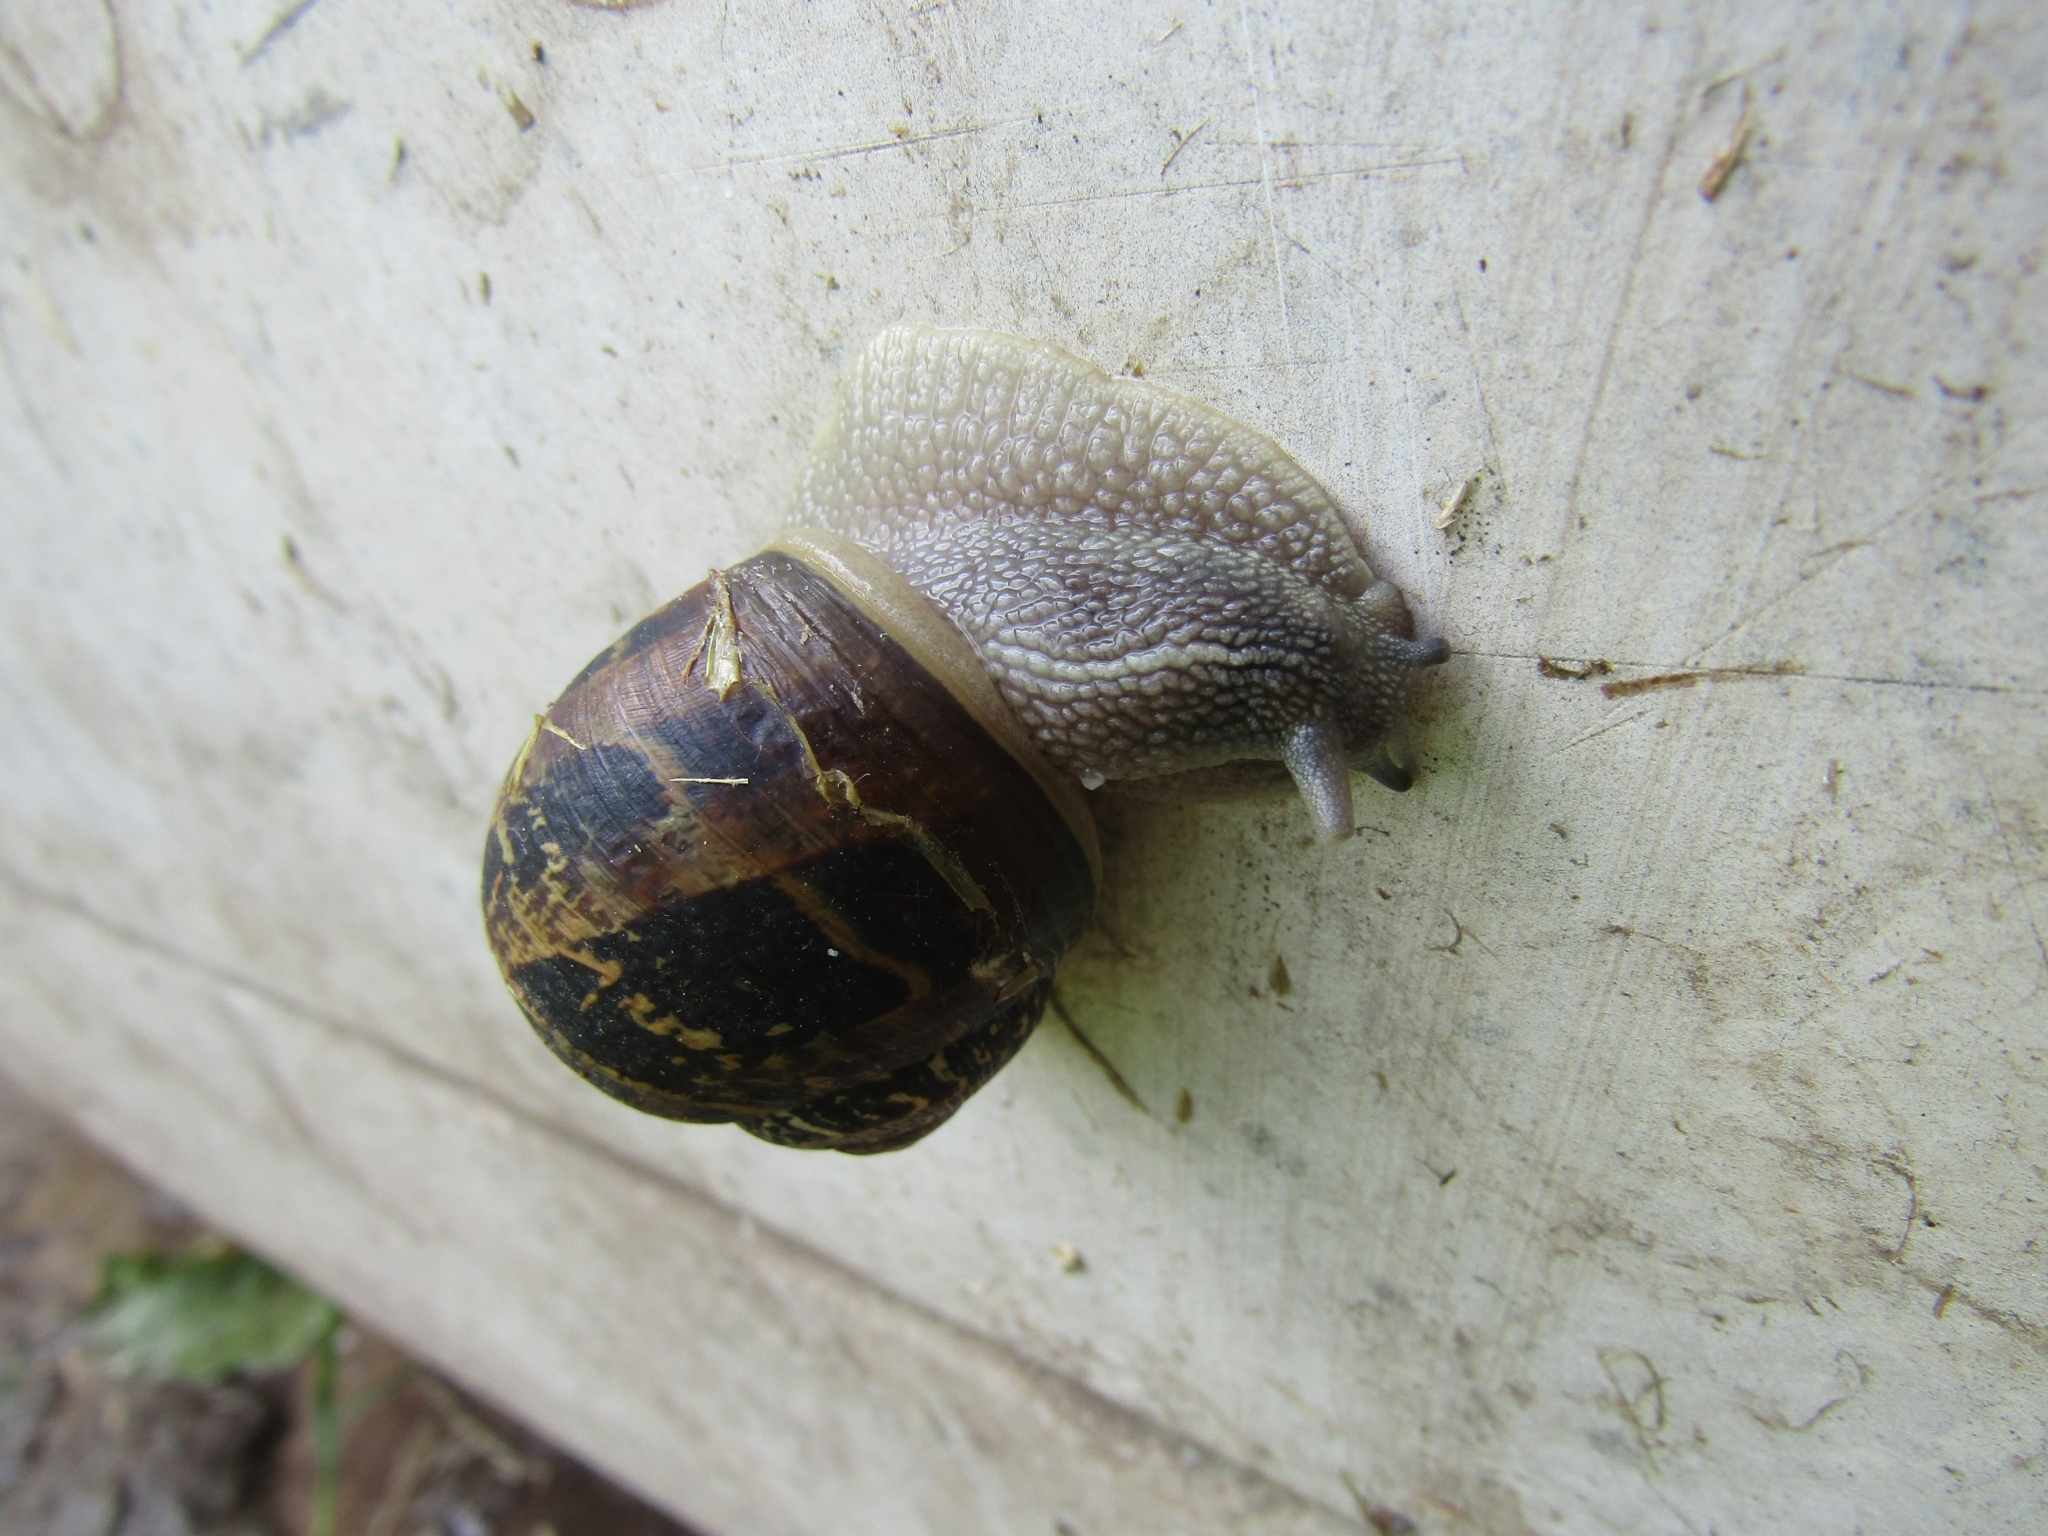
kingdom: Animalia
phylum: Mollusca
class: Gastropoda
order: Stylommatophora
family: Helicidae
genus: Cornu
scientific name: Cornu aspersum
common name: Brown garden snail
